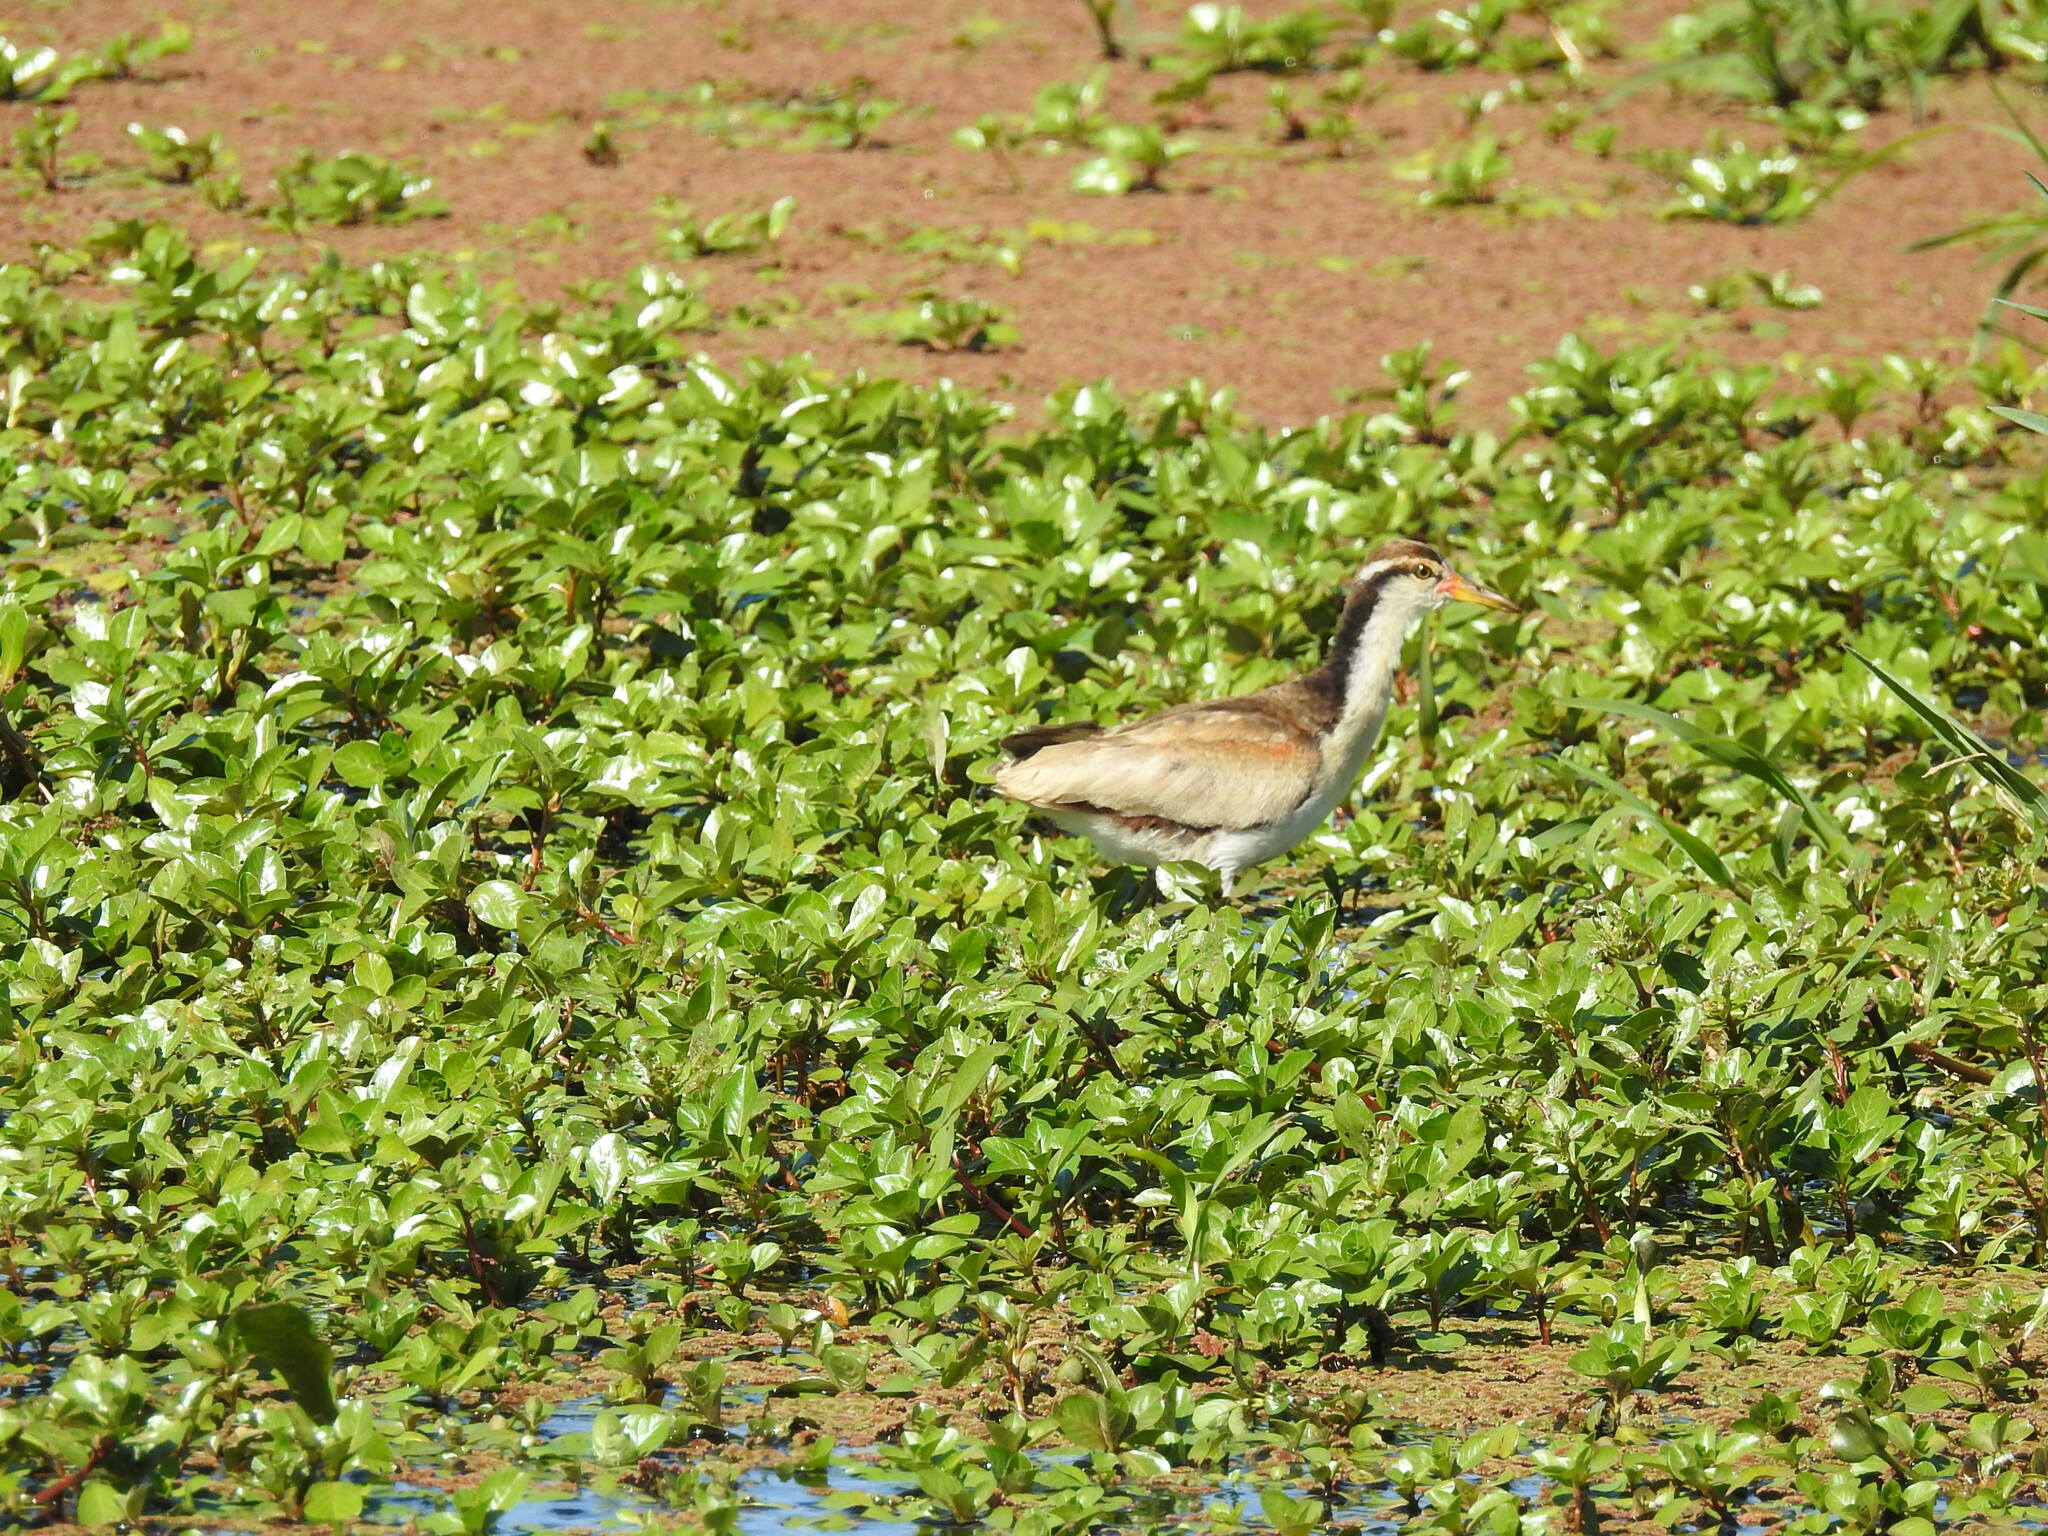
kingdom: Animalia
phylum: Chordata
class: Aves
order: Charadriiformes
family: Jacanidae
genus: Jacana
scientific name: Jacana jacana
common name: Wattled jacana
